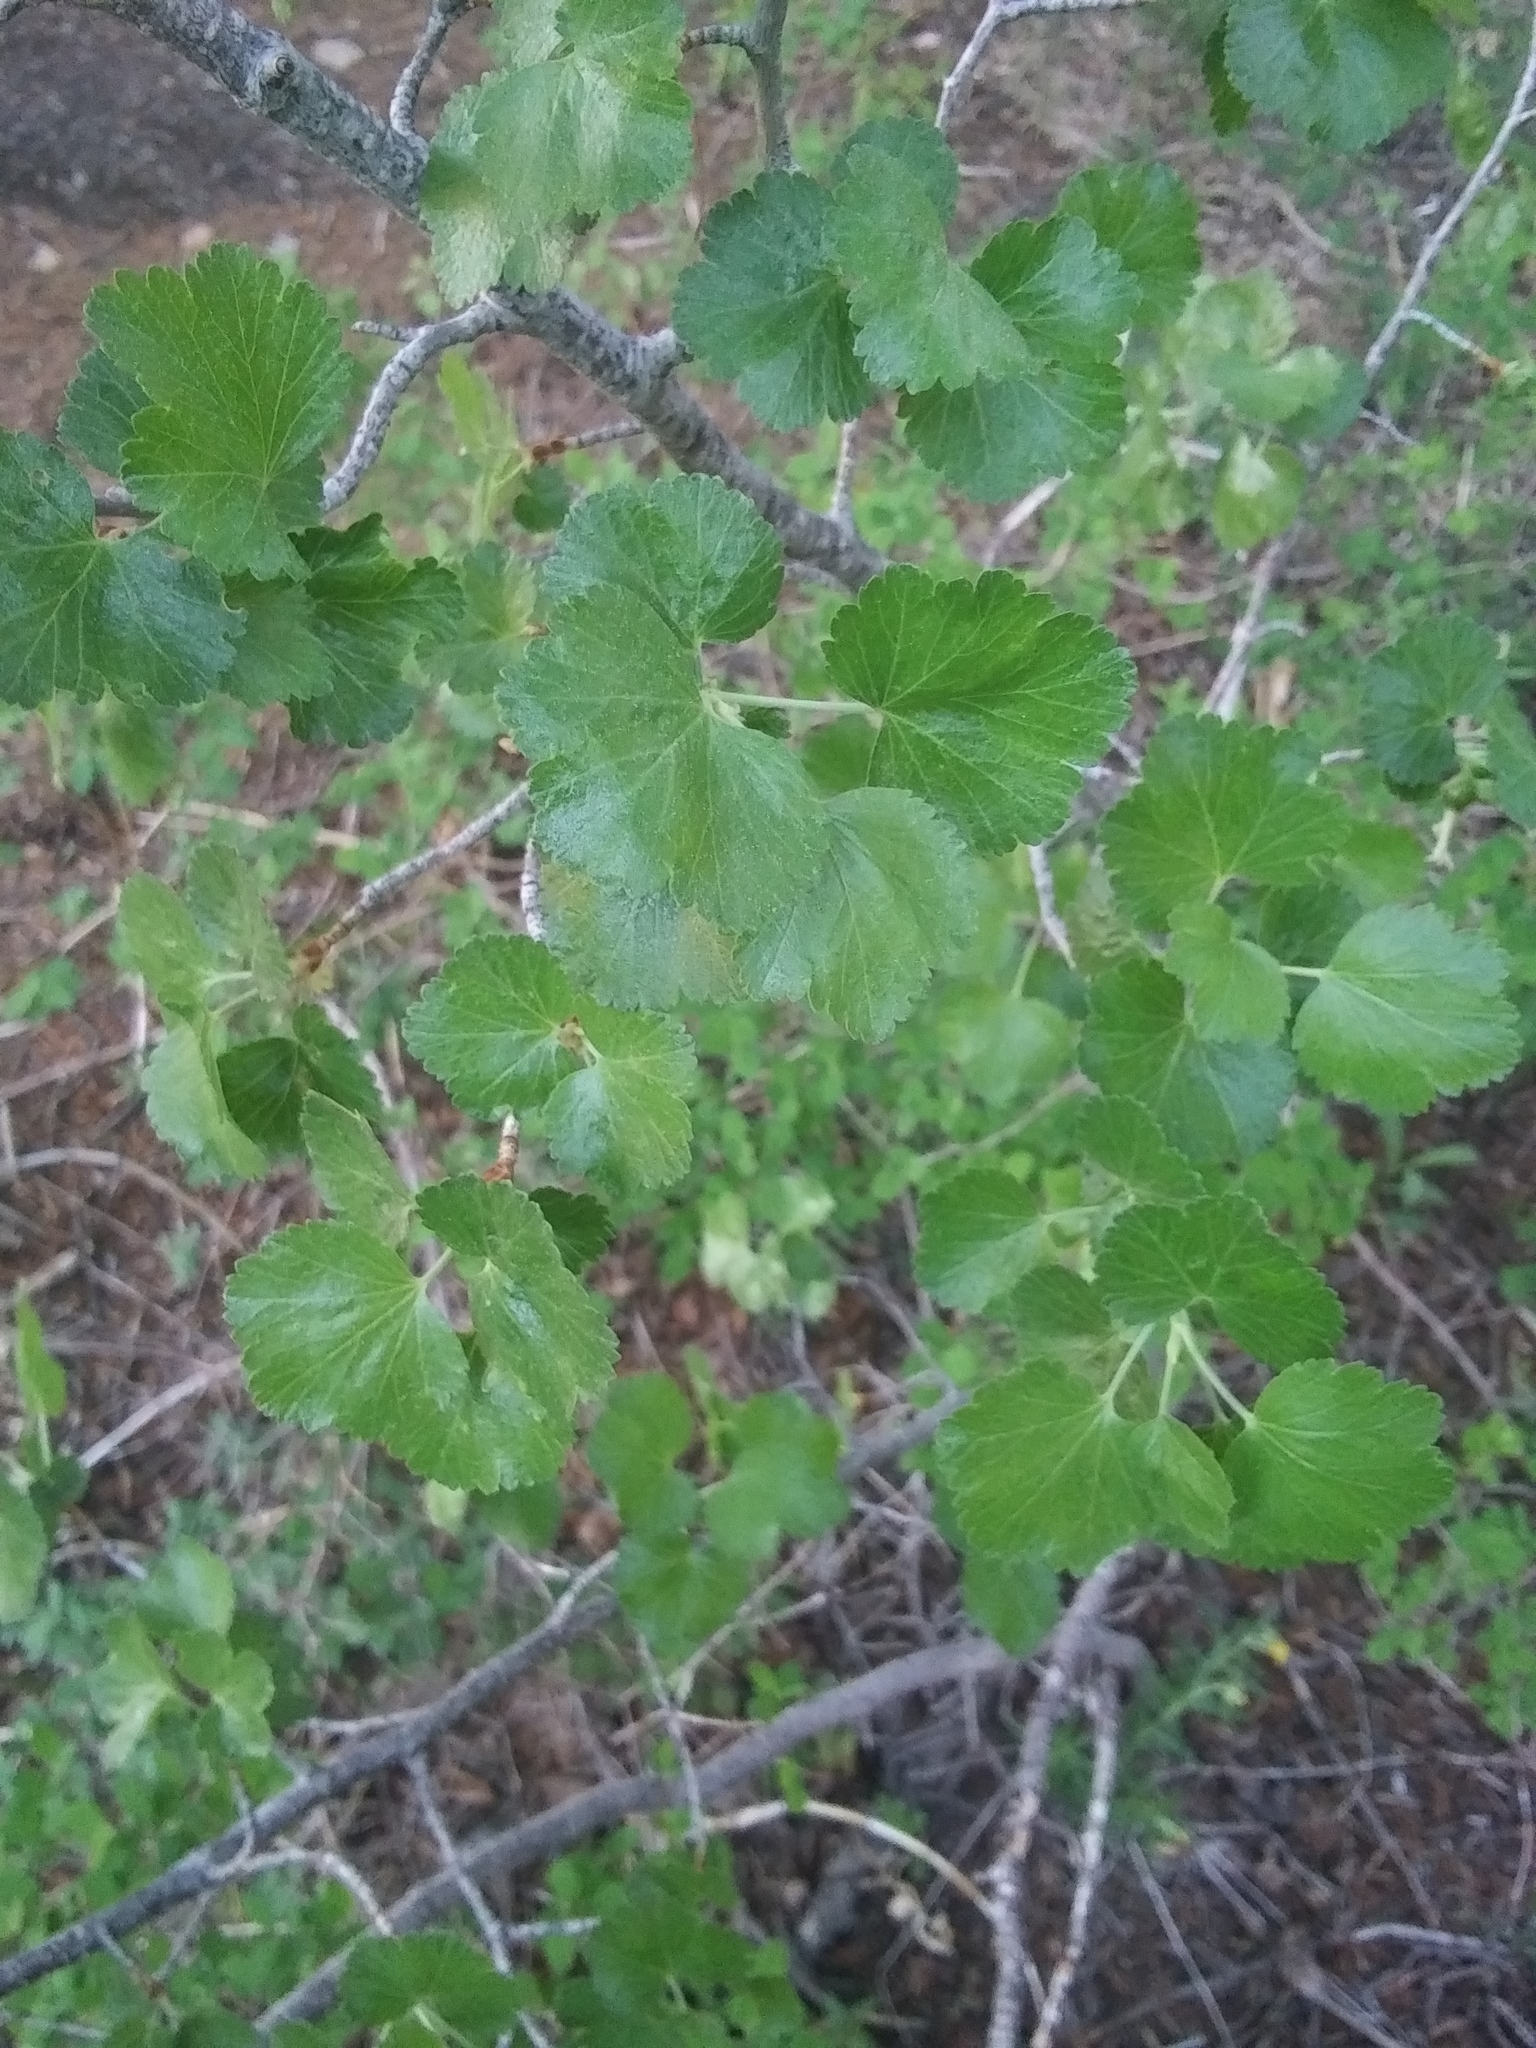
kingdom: Plantae
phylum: Tracheophyta
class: Magnoliopsida
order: Saxifragales
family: Grossulariaceae
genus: Ribes
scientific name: Ribes cereum
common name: Wax currant
